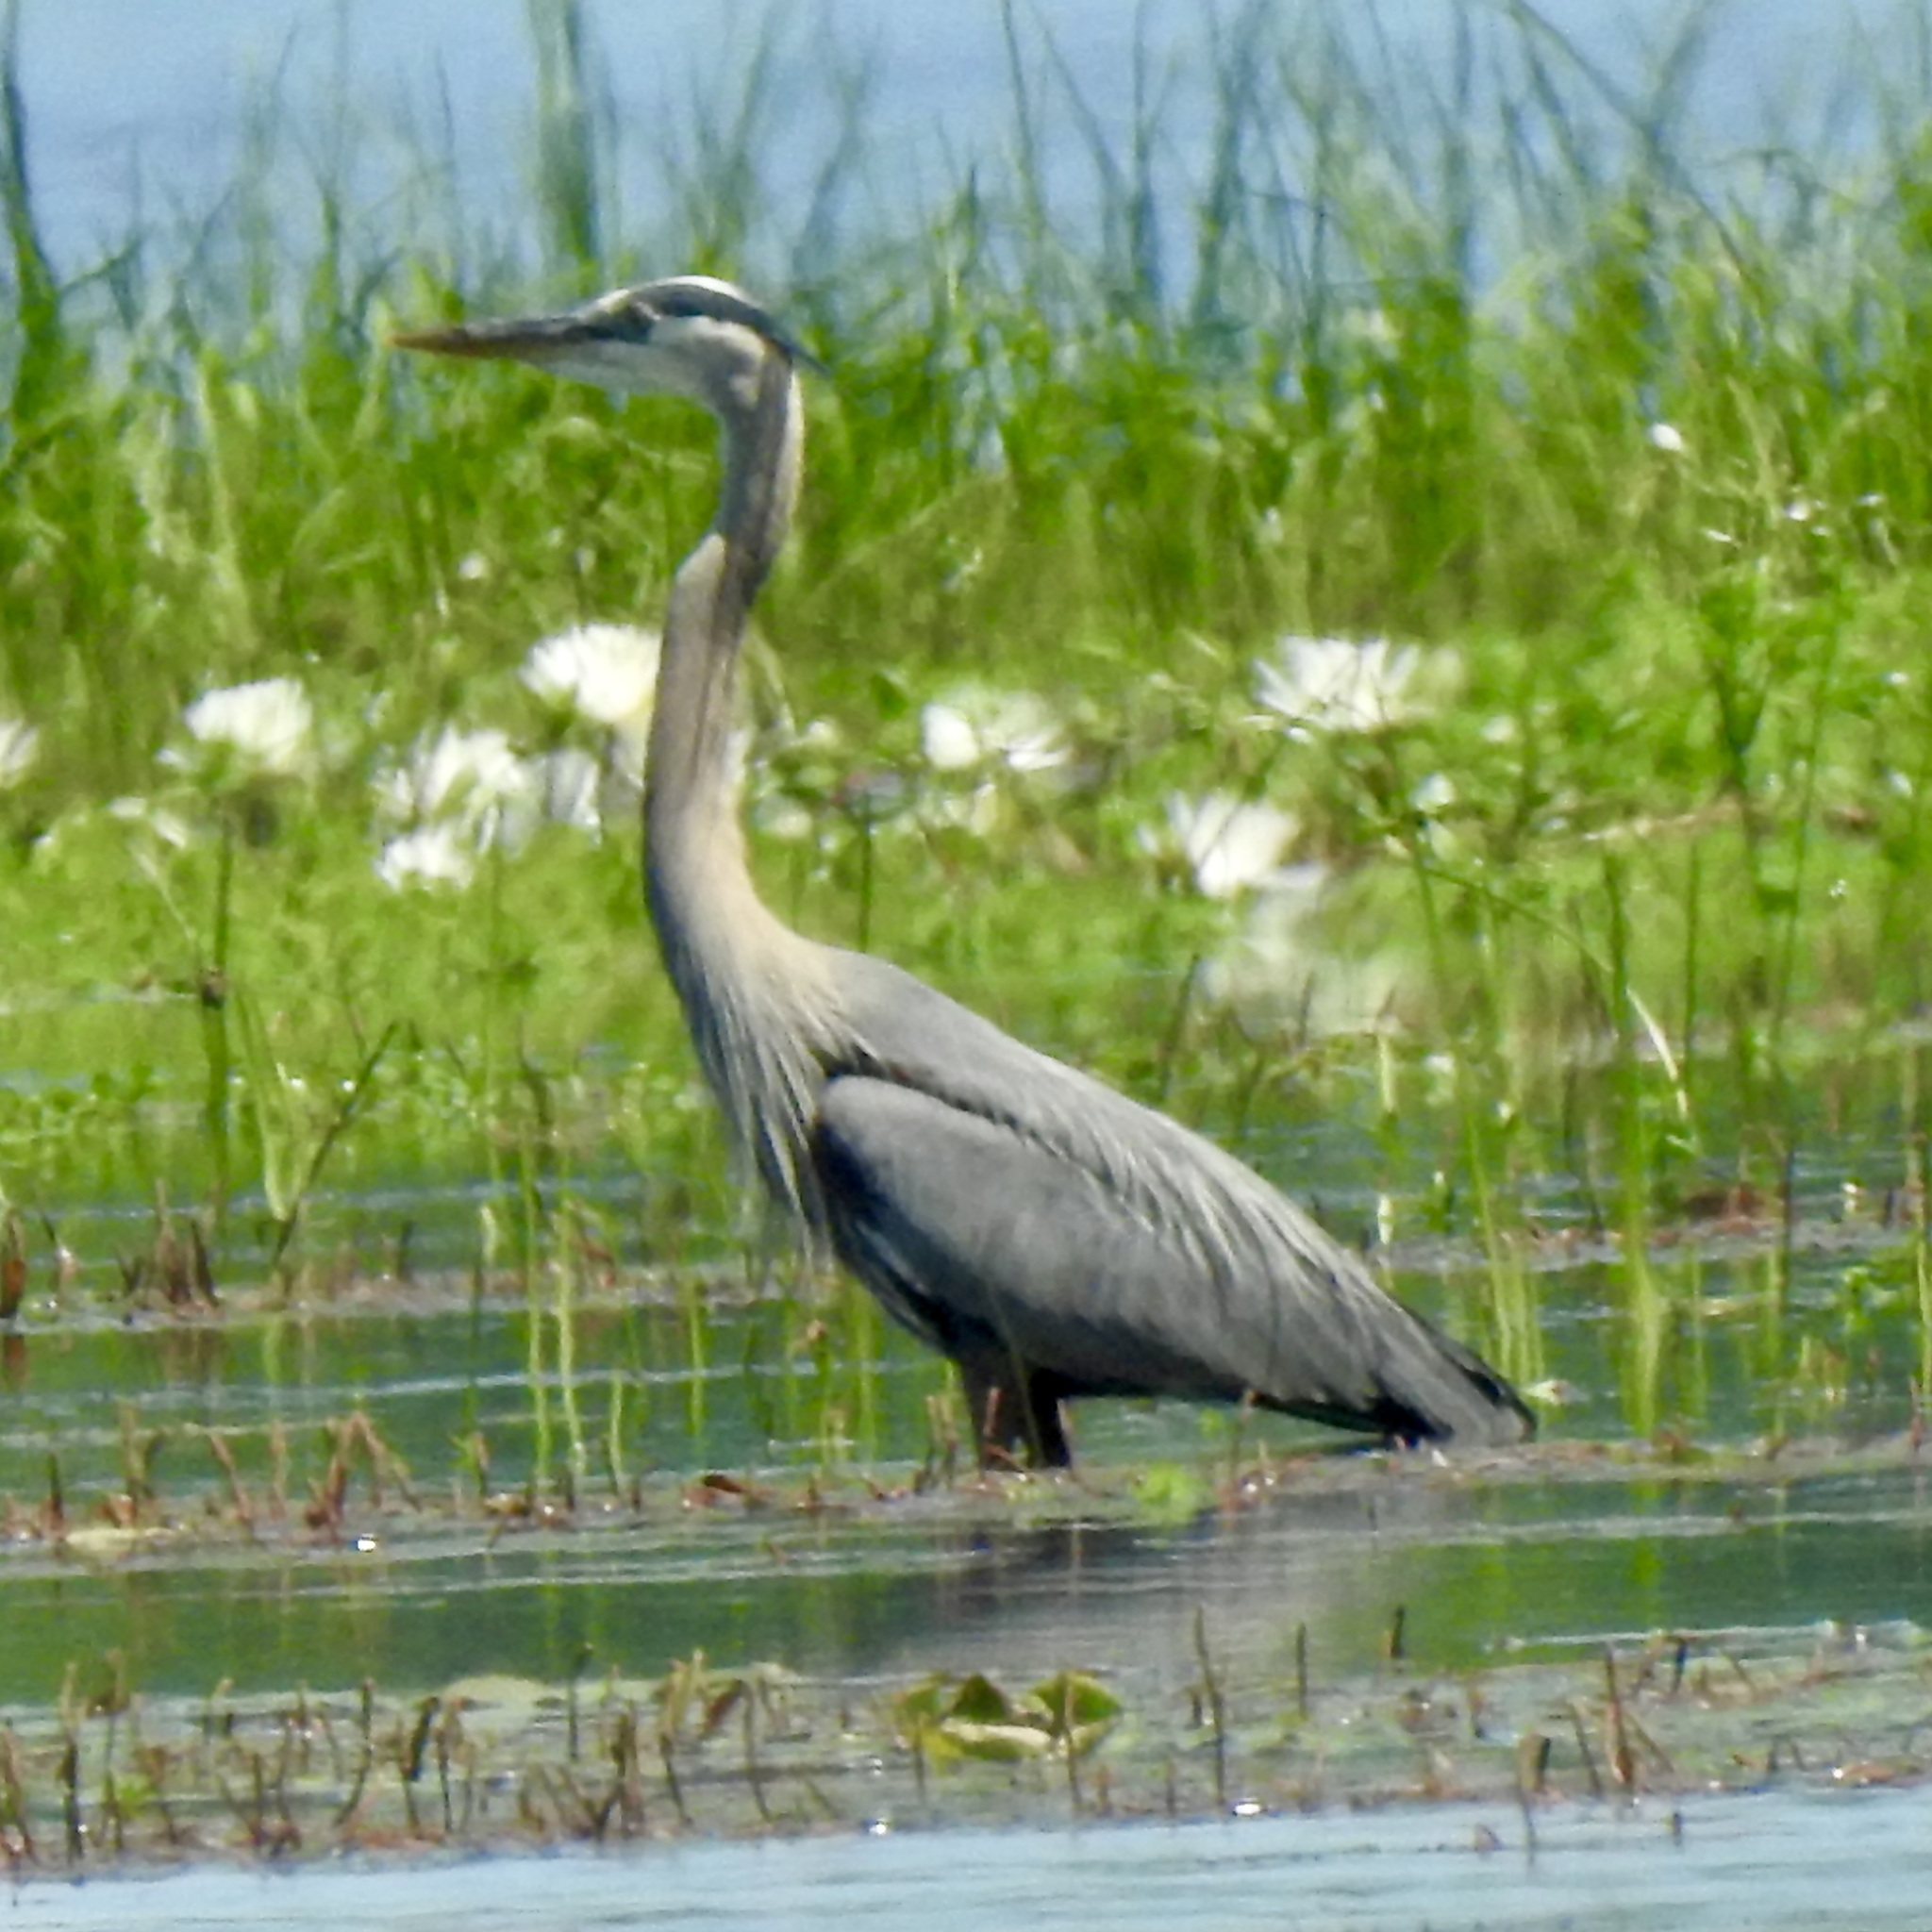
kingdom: Animalia
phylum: Chordata
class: Aves
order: Pelecaniformes
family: Ardeidae
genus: Ardea
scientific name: Ardea herodias
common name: Great blue heron
